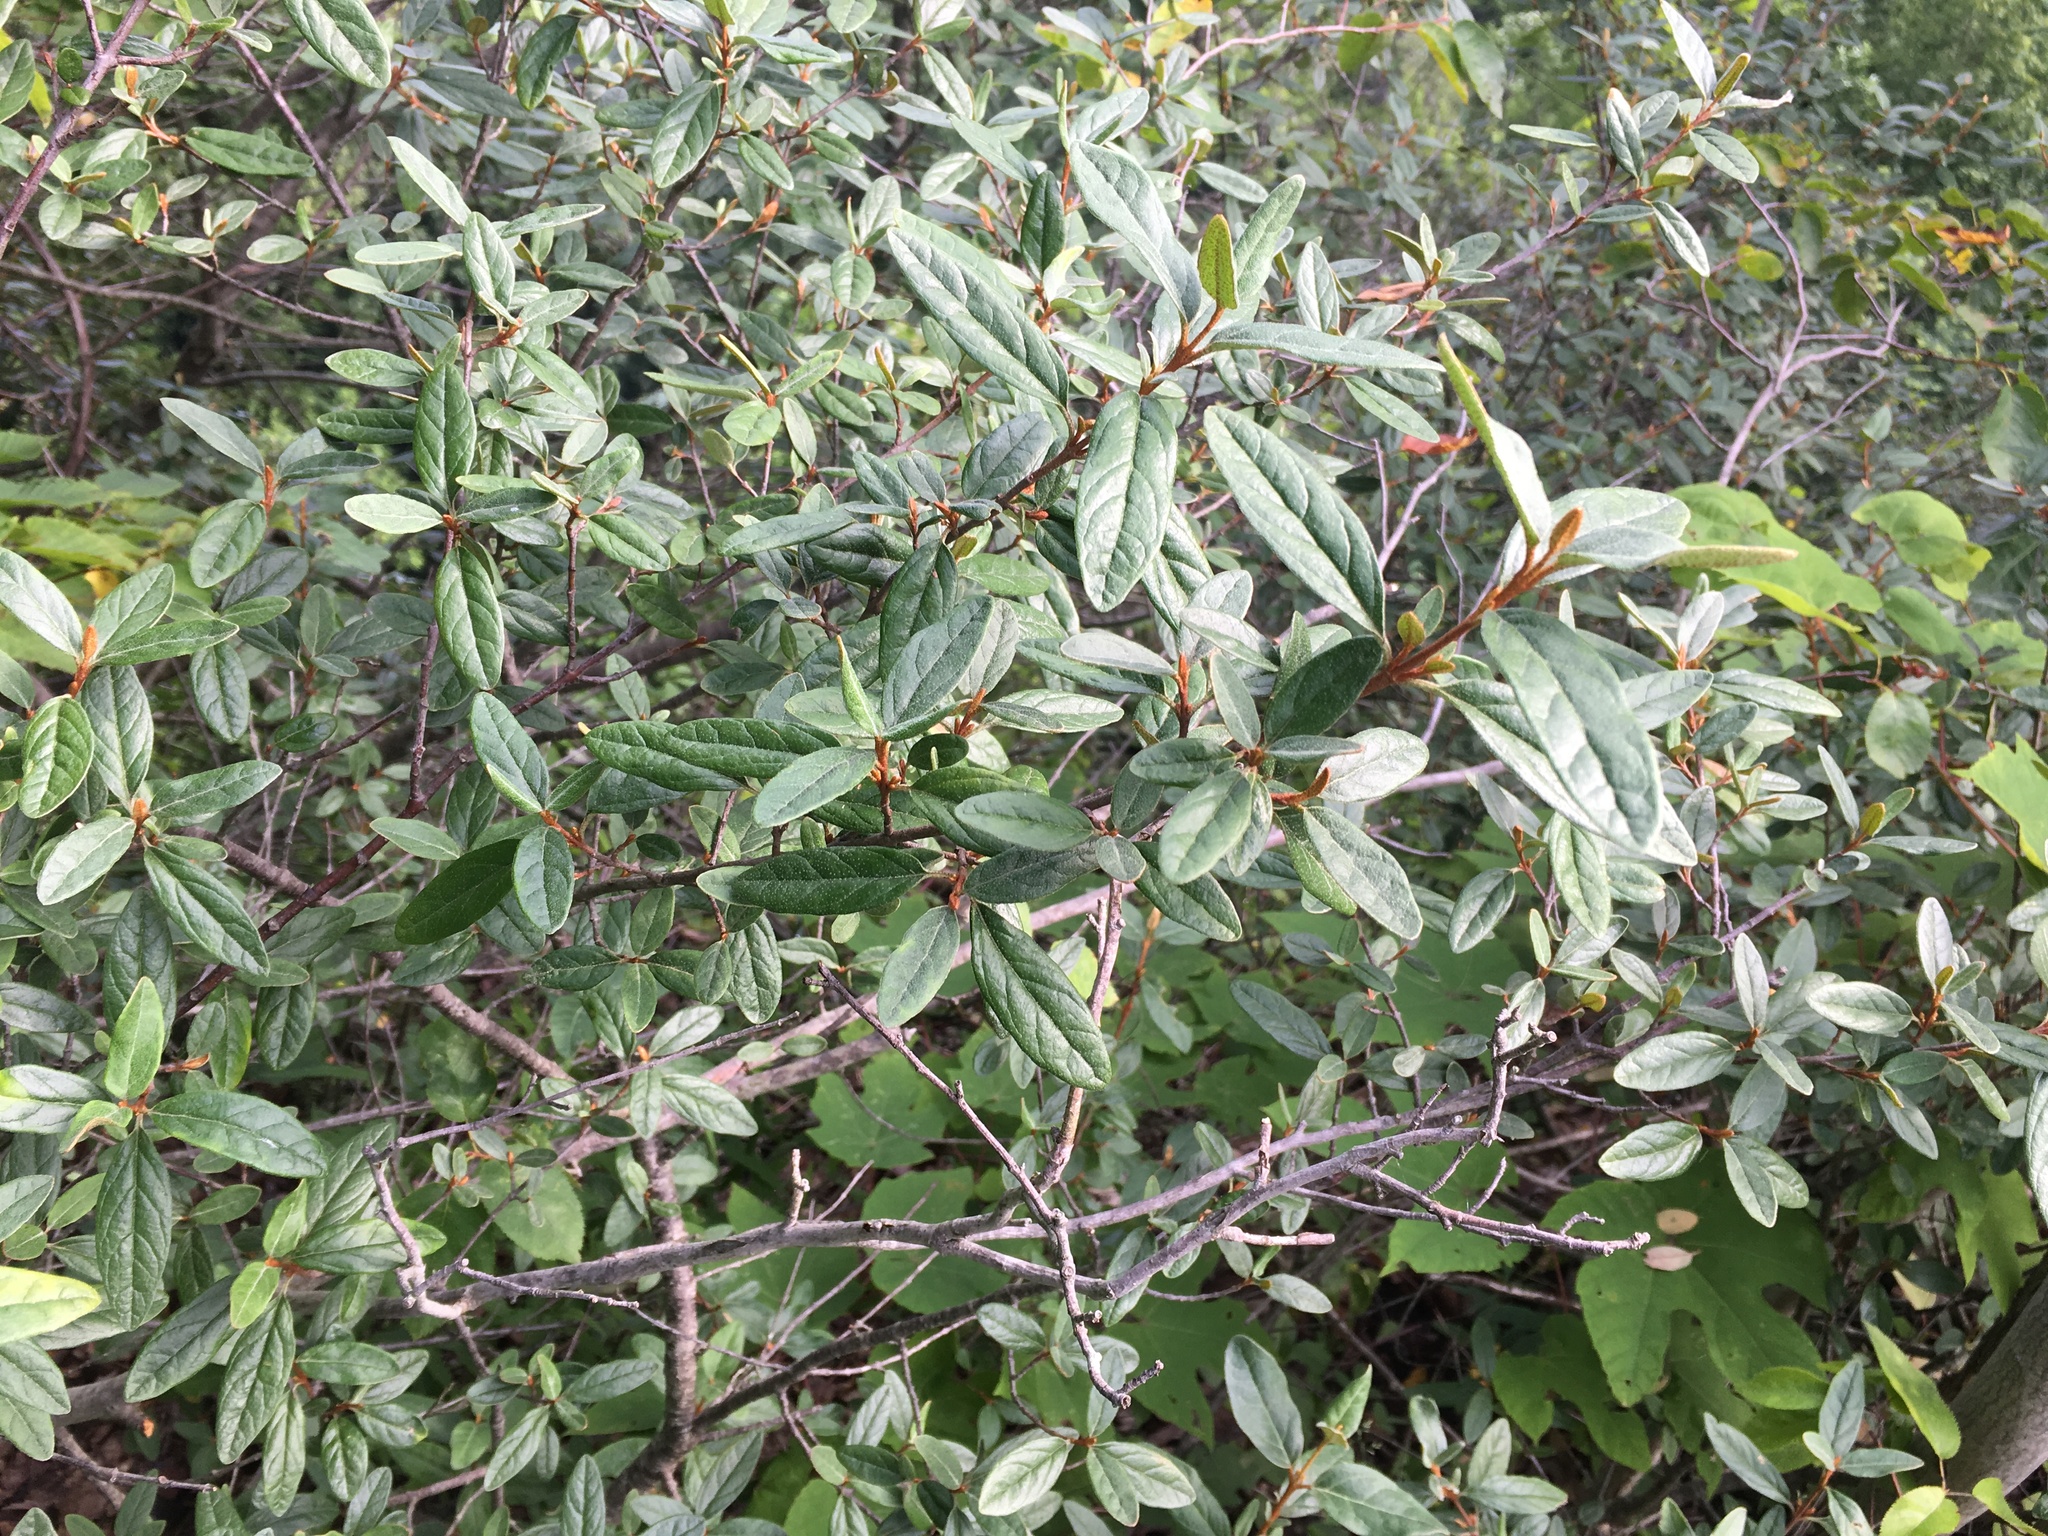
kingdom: Plantae
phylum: Tracheophyta
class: Magnoliopsida
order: Rosales
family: Elaeagnaceae
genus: Shepherdia
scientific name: Shepherdia canadensis
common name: Soapberry
